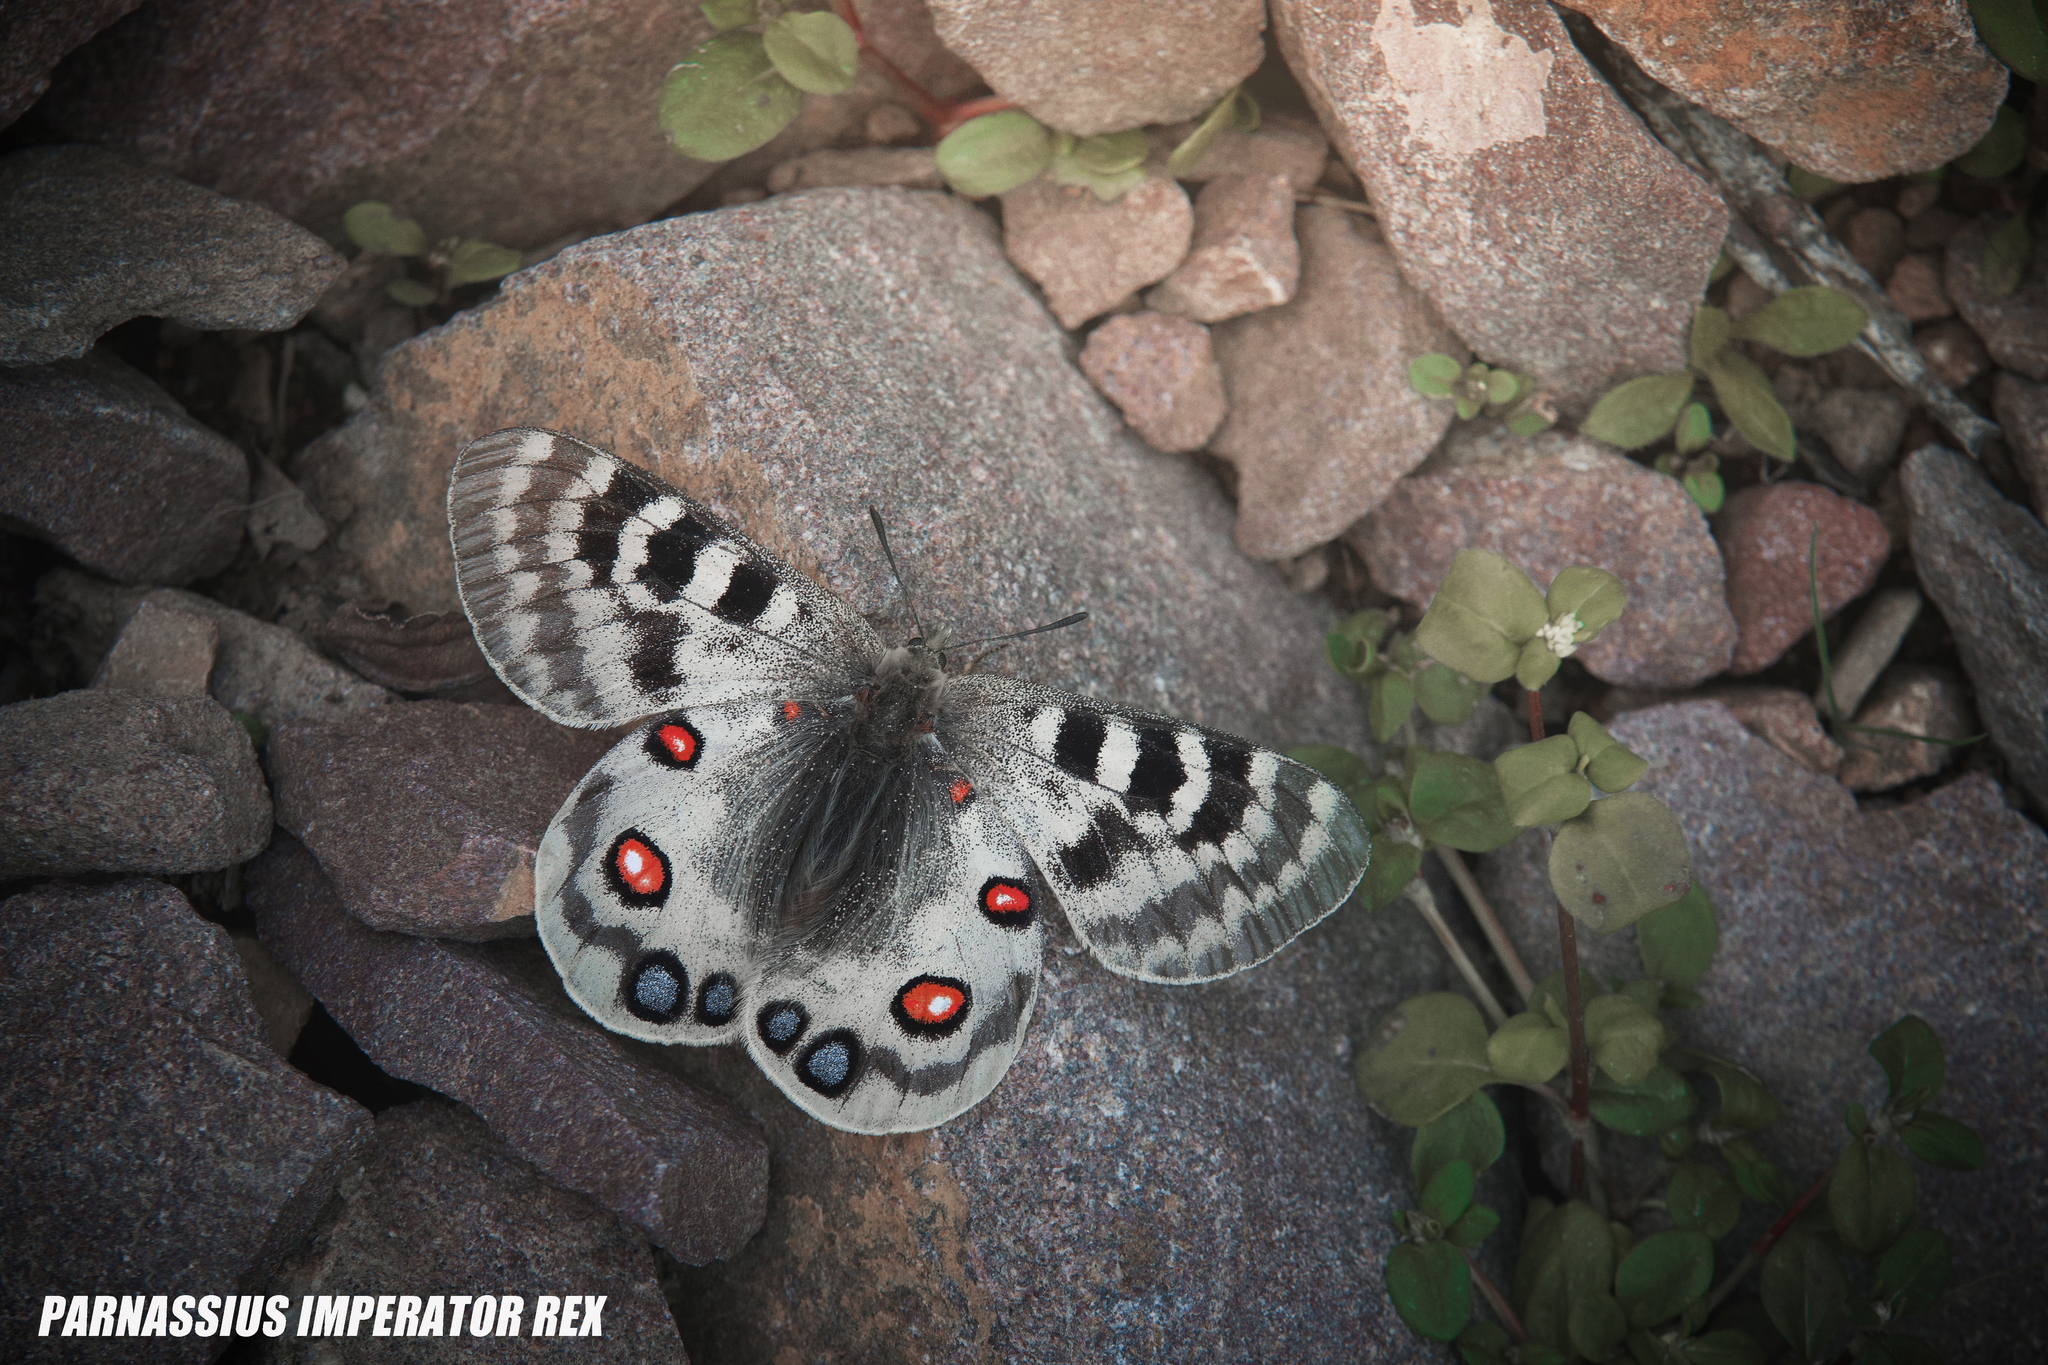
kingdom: Animalia
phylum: Arthropoda
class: Insecta
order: Lepidoptera
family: Papilionidae
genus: Parnassius
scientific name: Parnassius imperator
